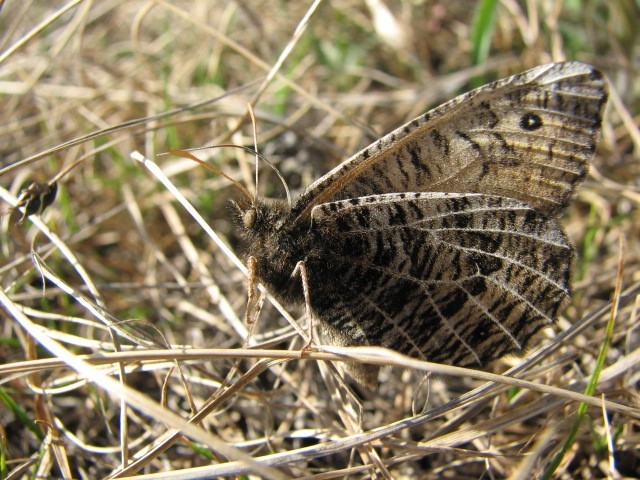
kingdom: Animalia
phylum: Arthropoda
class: Insecta
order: Lepidoptera
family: Nymphalidae
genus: Oeneis
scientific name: Oeneis alberta
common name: Alberta arctic
